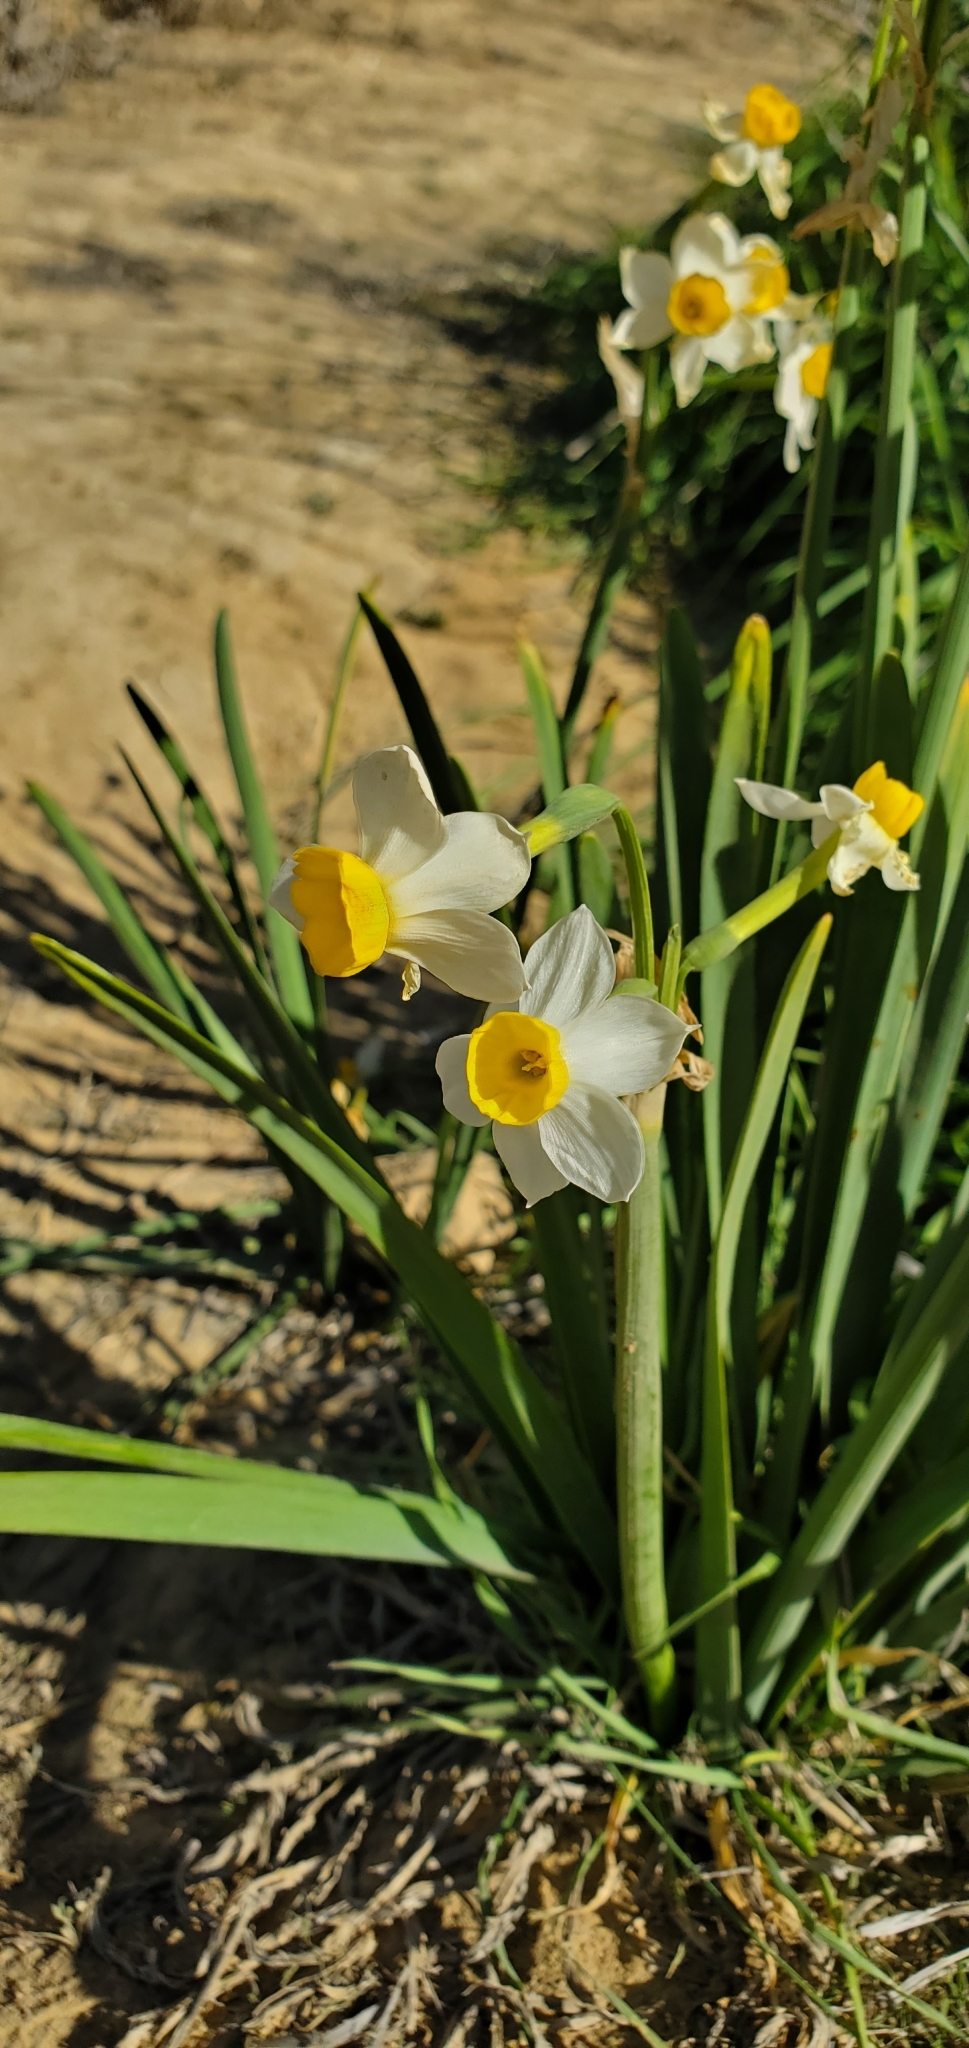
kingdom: Plantae
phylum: Tracheophyta
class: Liliopsida
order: Asparagales
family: Amaryllidaceae
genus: Narcissus
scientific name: Narcissus tazetta
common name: Bunch-flowered daffodil
